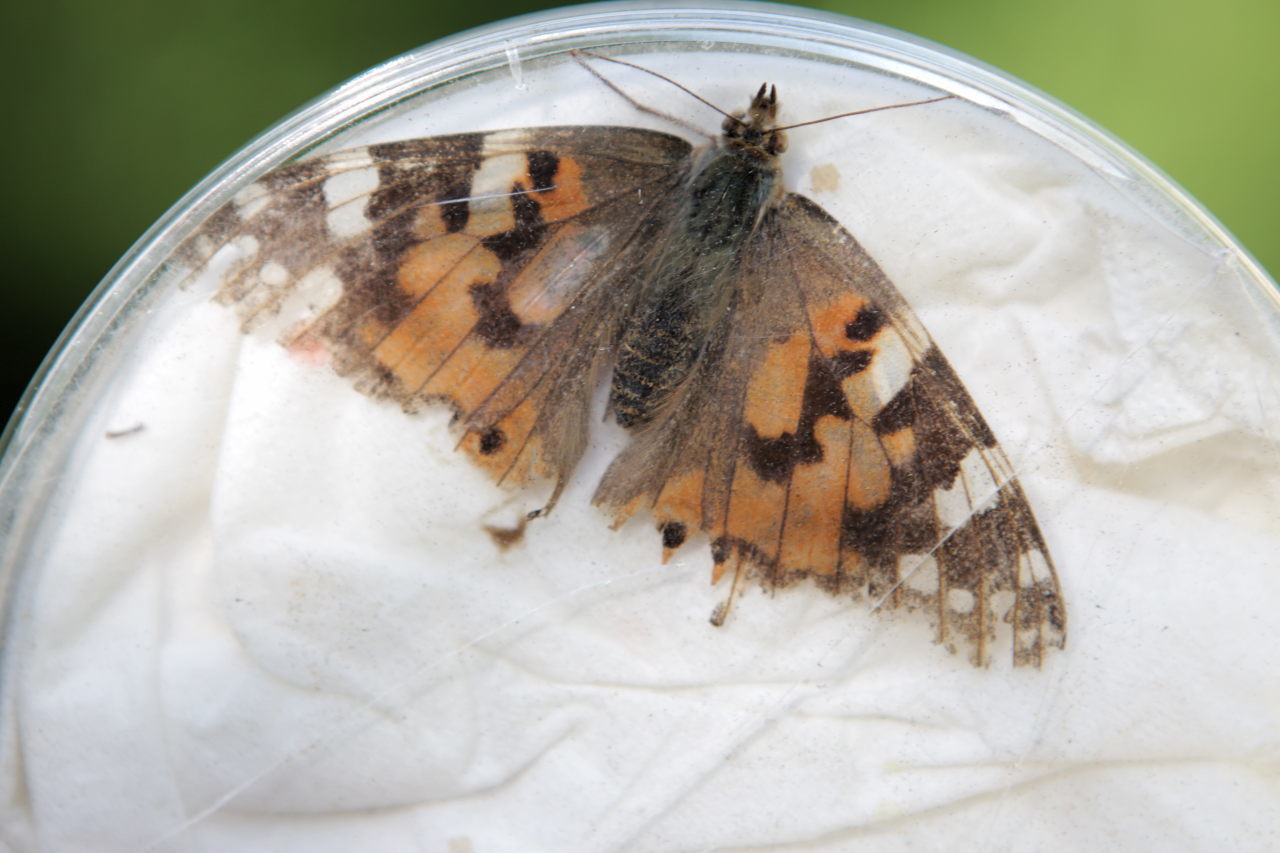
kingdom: Animalia
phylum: Arthropoda
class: Insecta
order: Lepidoptera
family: Nymphalidae
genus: Vanessa
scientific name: Vanessa cardui
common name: Painted lady
